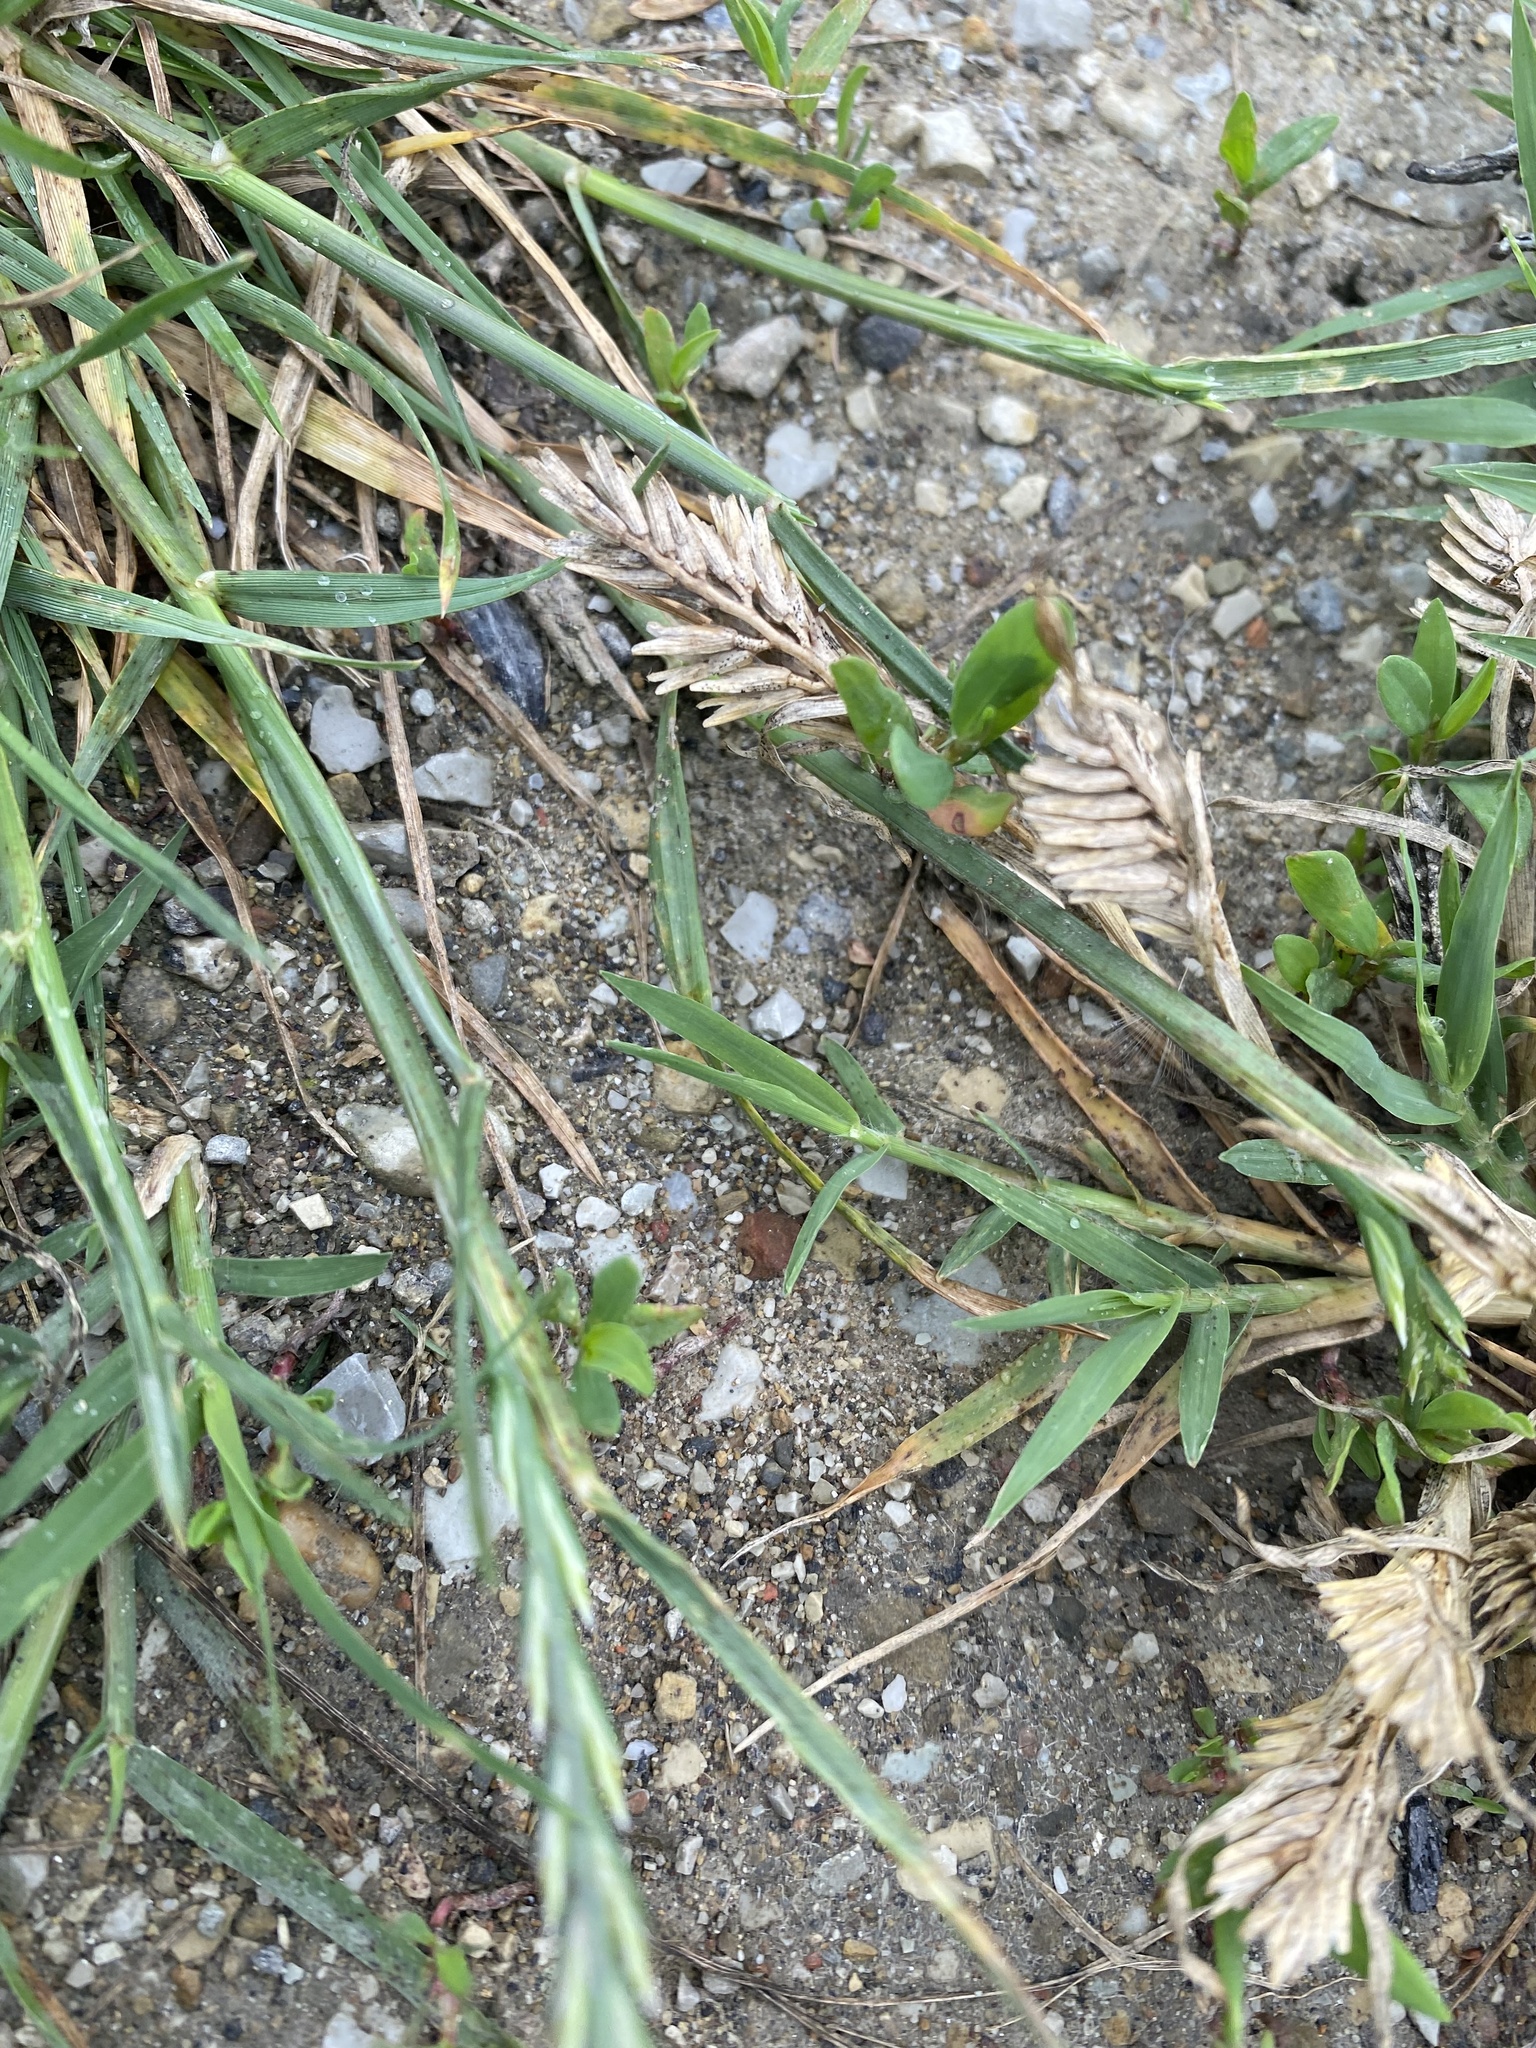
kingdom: Plantae
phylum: Tracheophyta
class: Liliopsida
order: Poales
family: Poaceae
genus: Sclerochloa
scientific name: Sclerochloa dura
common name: Common hardgrass
